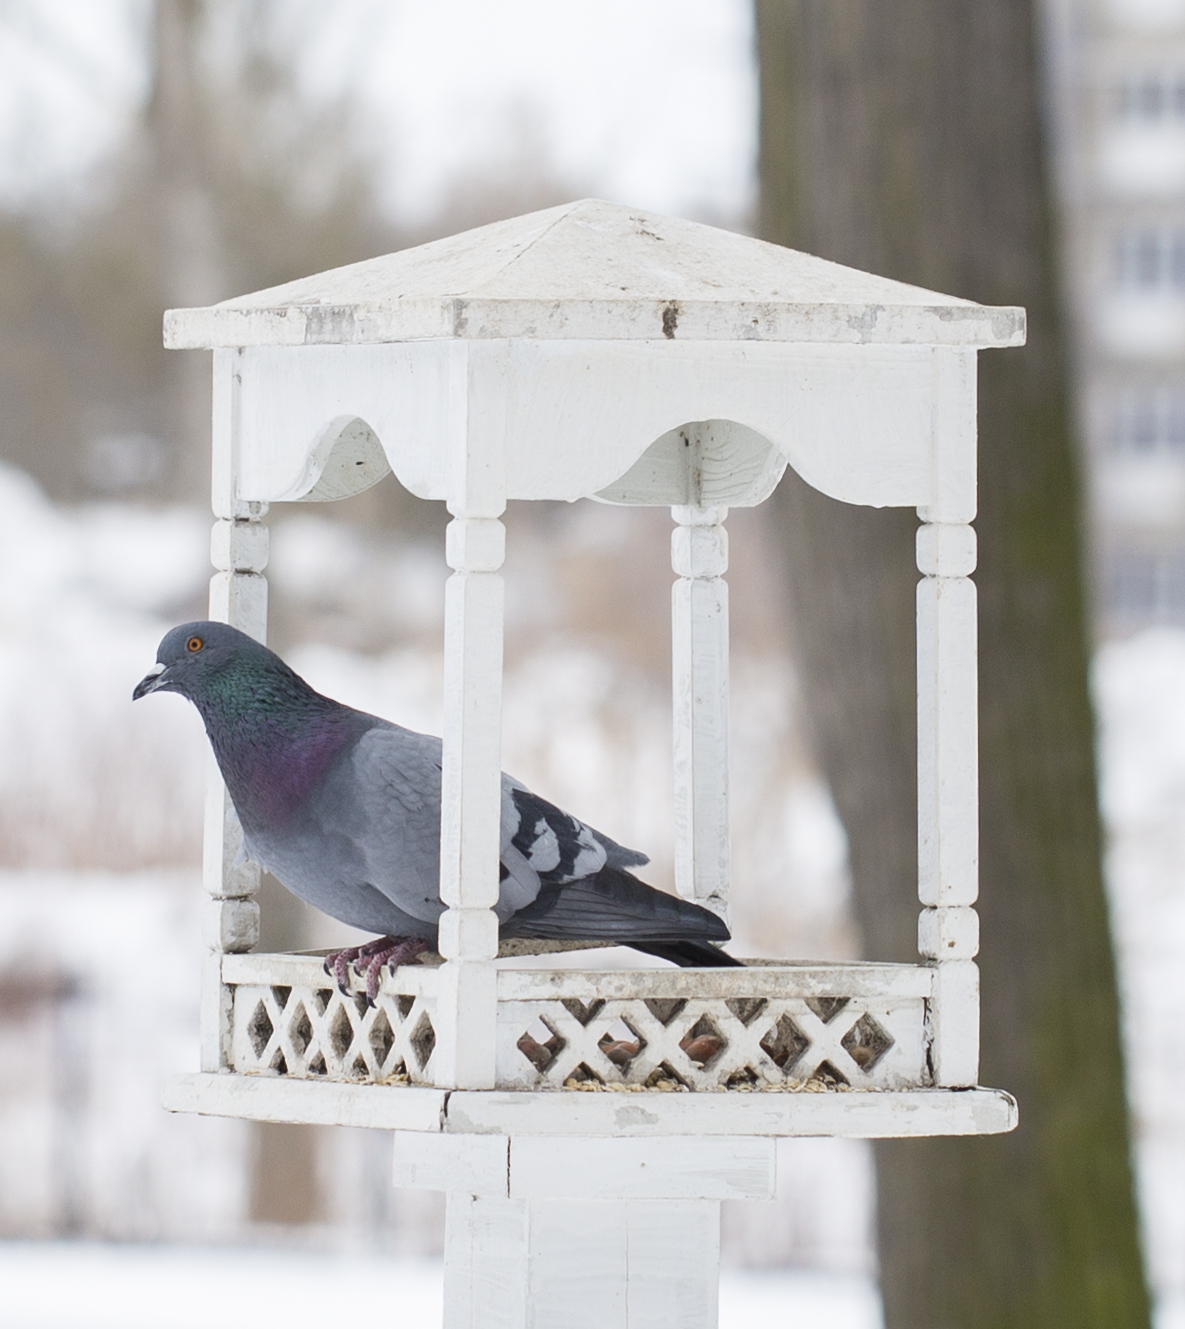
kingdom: Animalia
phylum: Chordata
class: Aves
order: Columbiformes
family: Columbidae
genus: Columba
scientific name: Columba livia
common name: Rock pigeon
